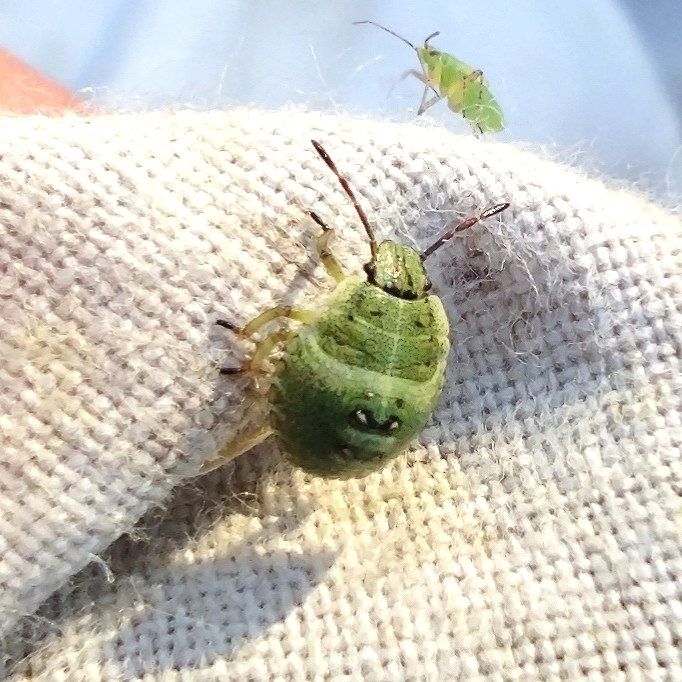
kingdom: Animalia
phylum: Arthropoda
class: Insecta
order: Hemiptera
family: Pentatomidae
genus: Palomena
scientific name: Palomena prasina
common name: Green shieldbug
